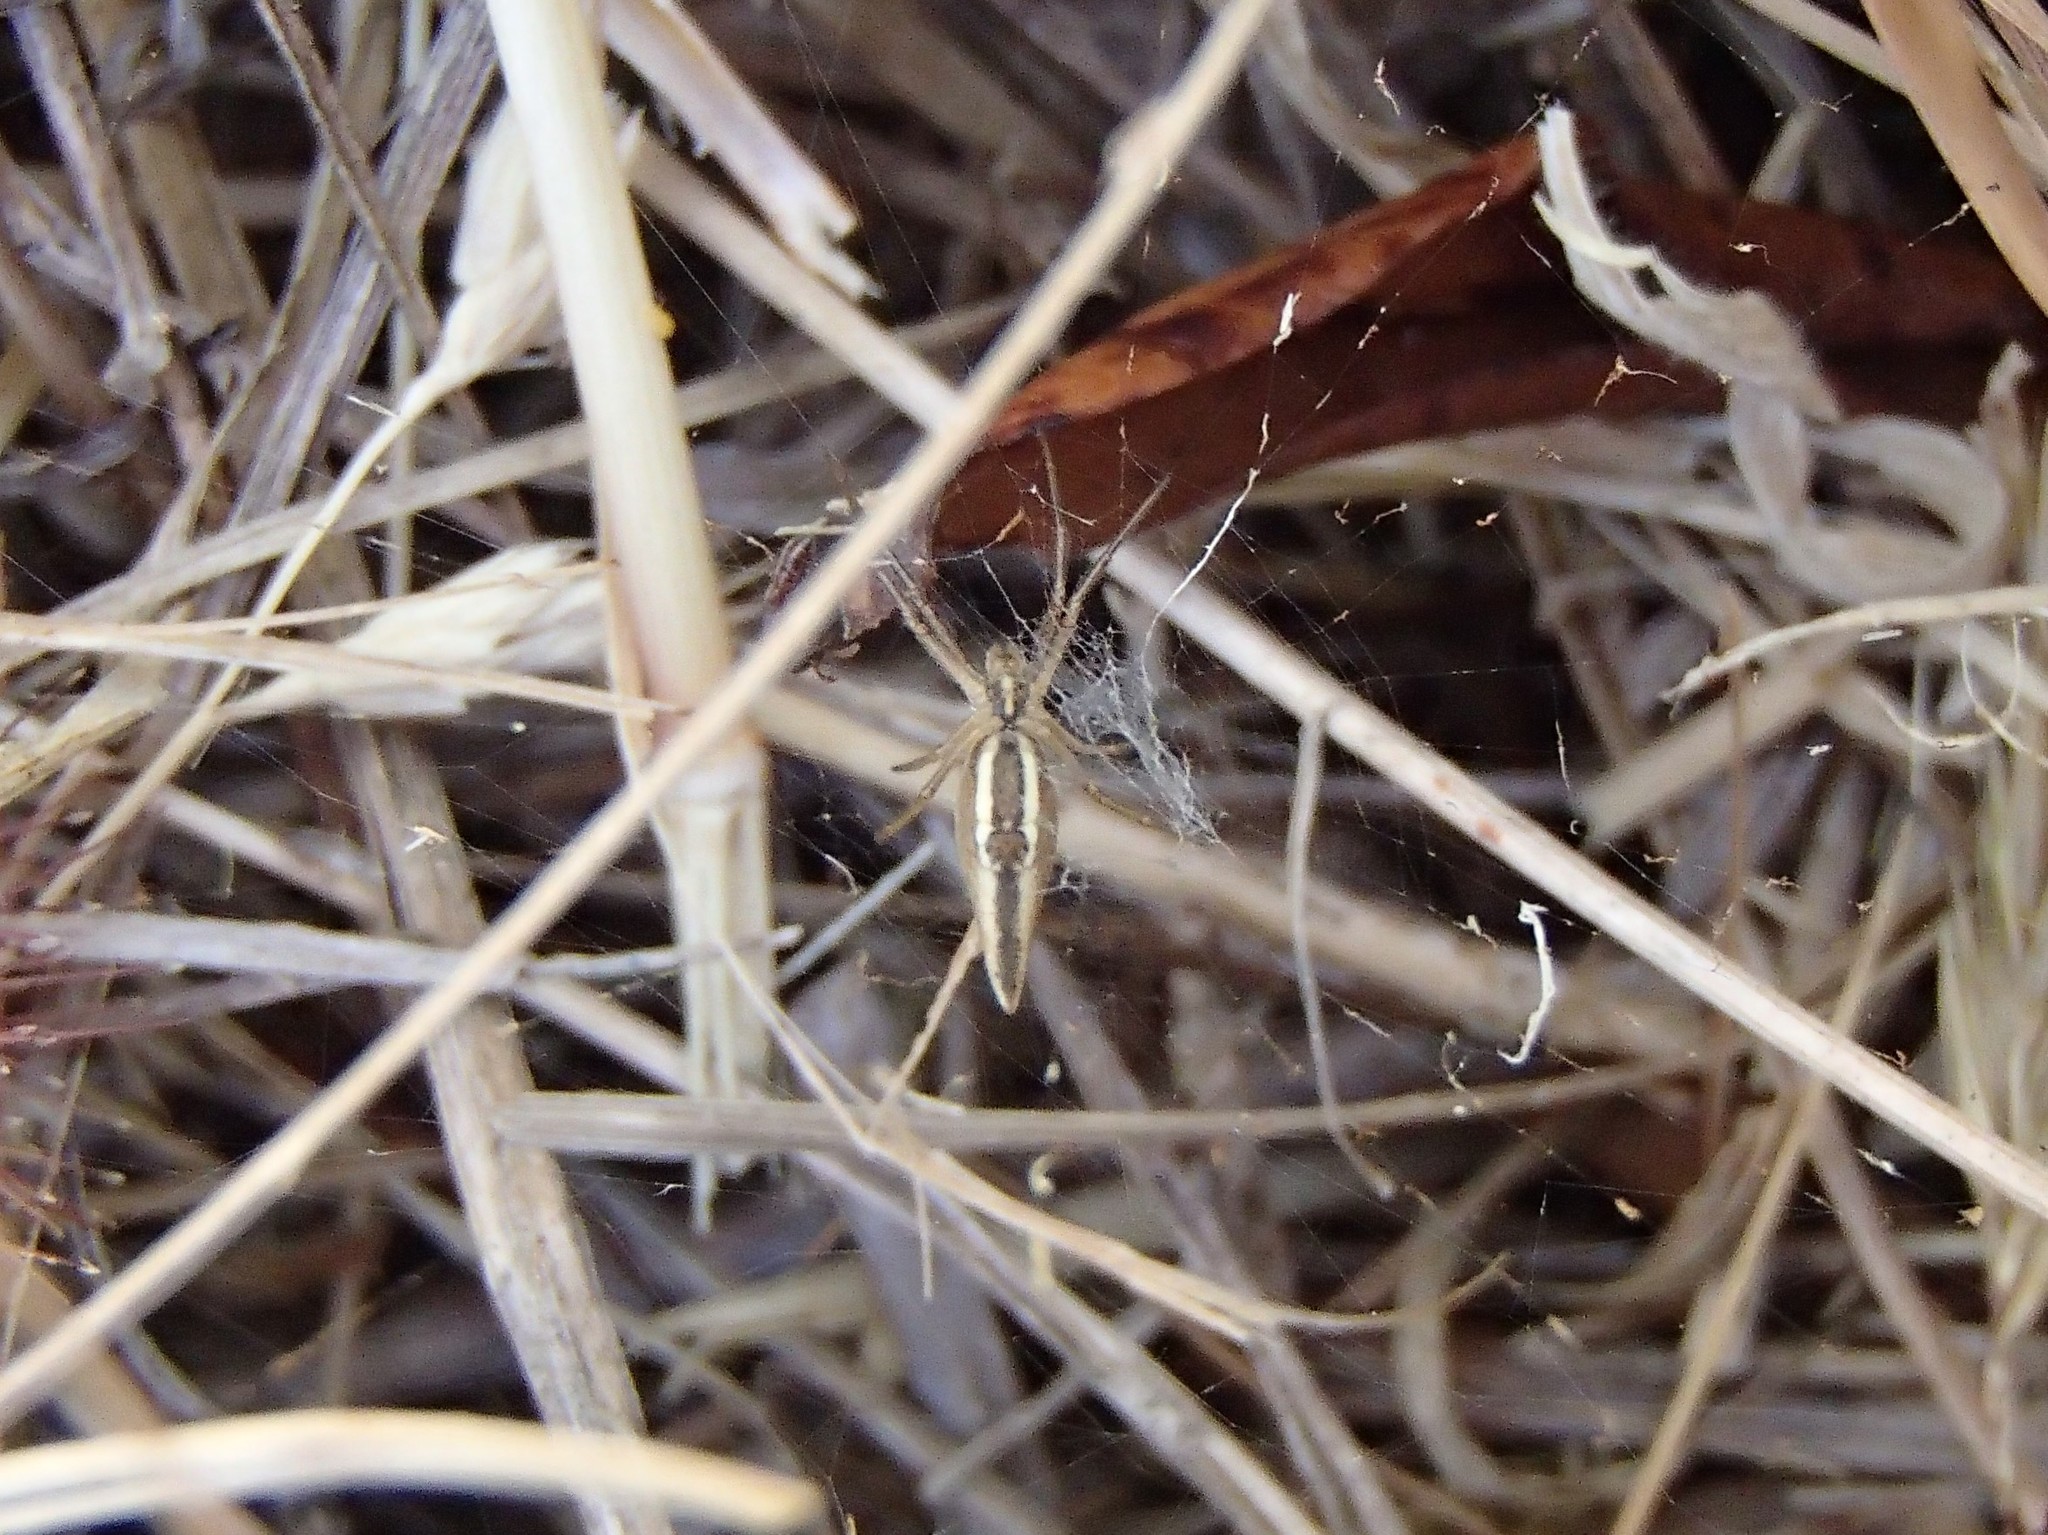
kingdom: Animalia
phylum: Arthropoda
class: Arachnida
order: Araneae
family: Araneidae
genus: Argiope
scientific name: Argiope protensa
